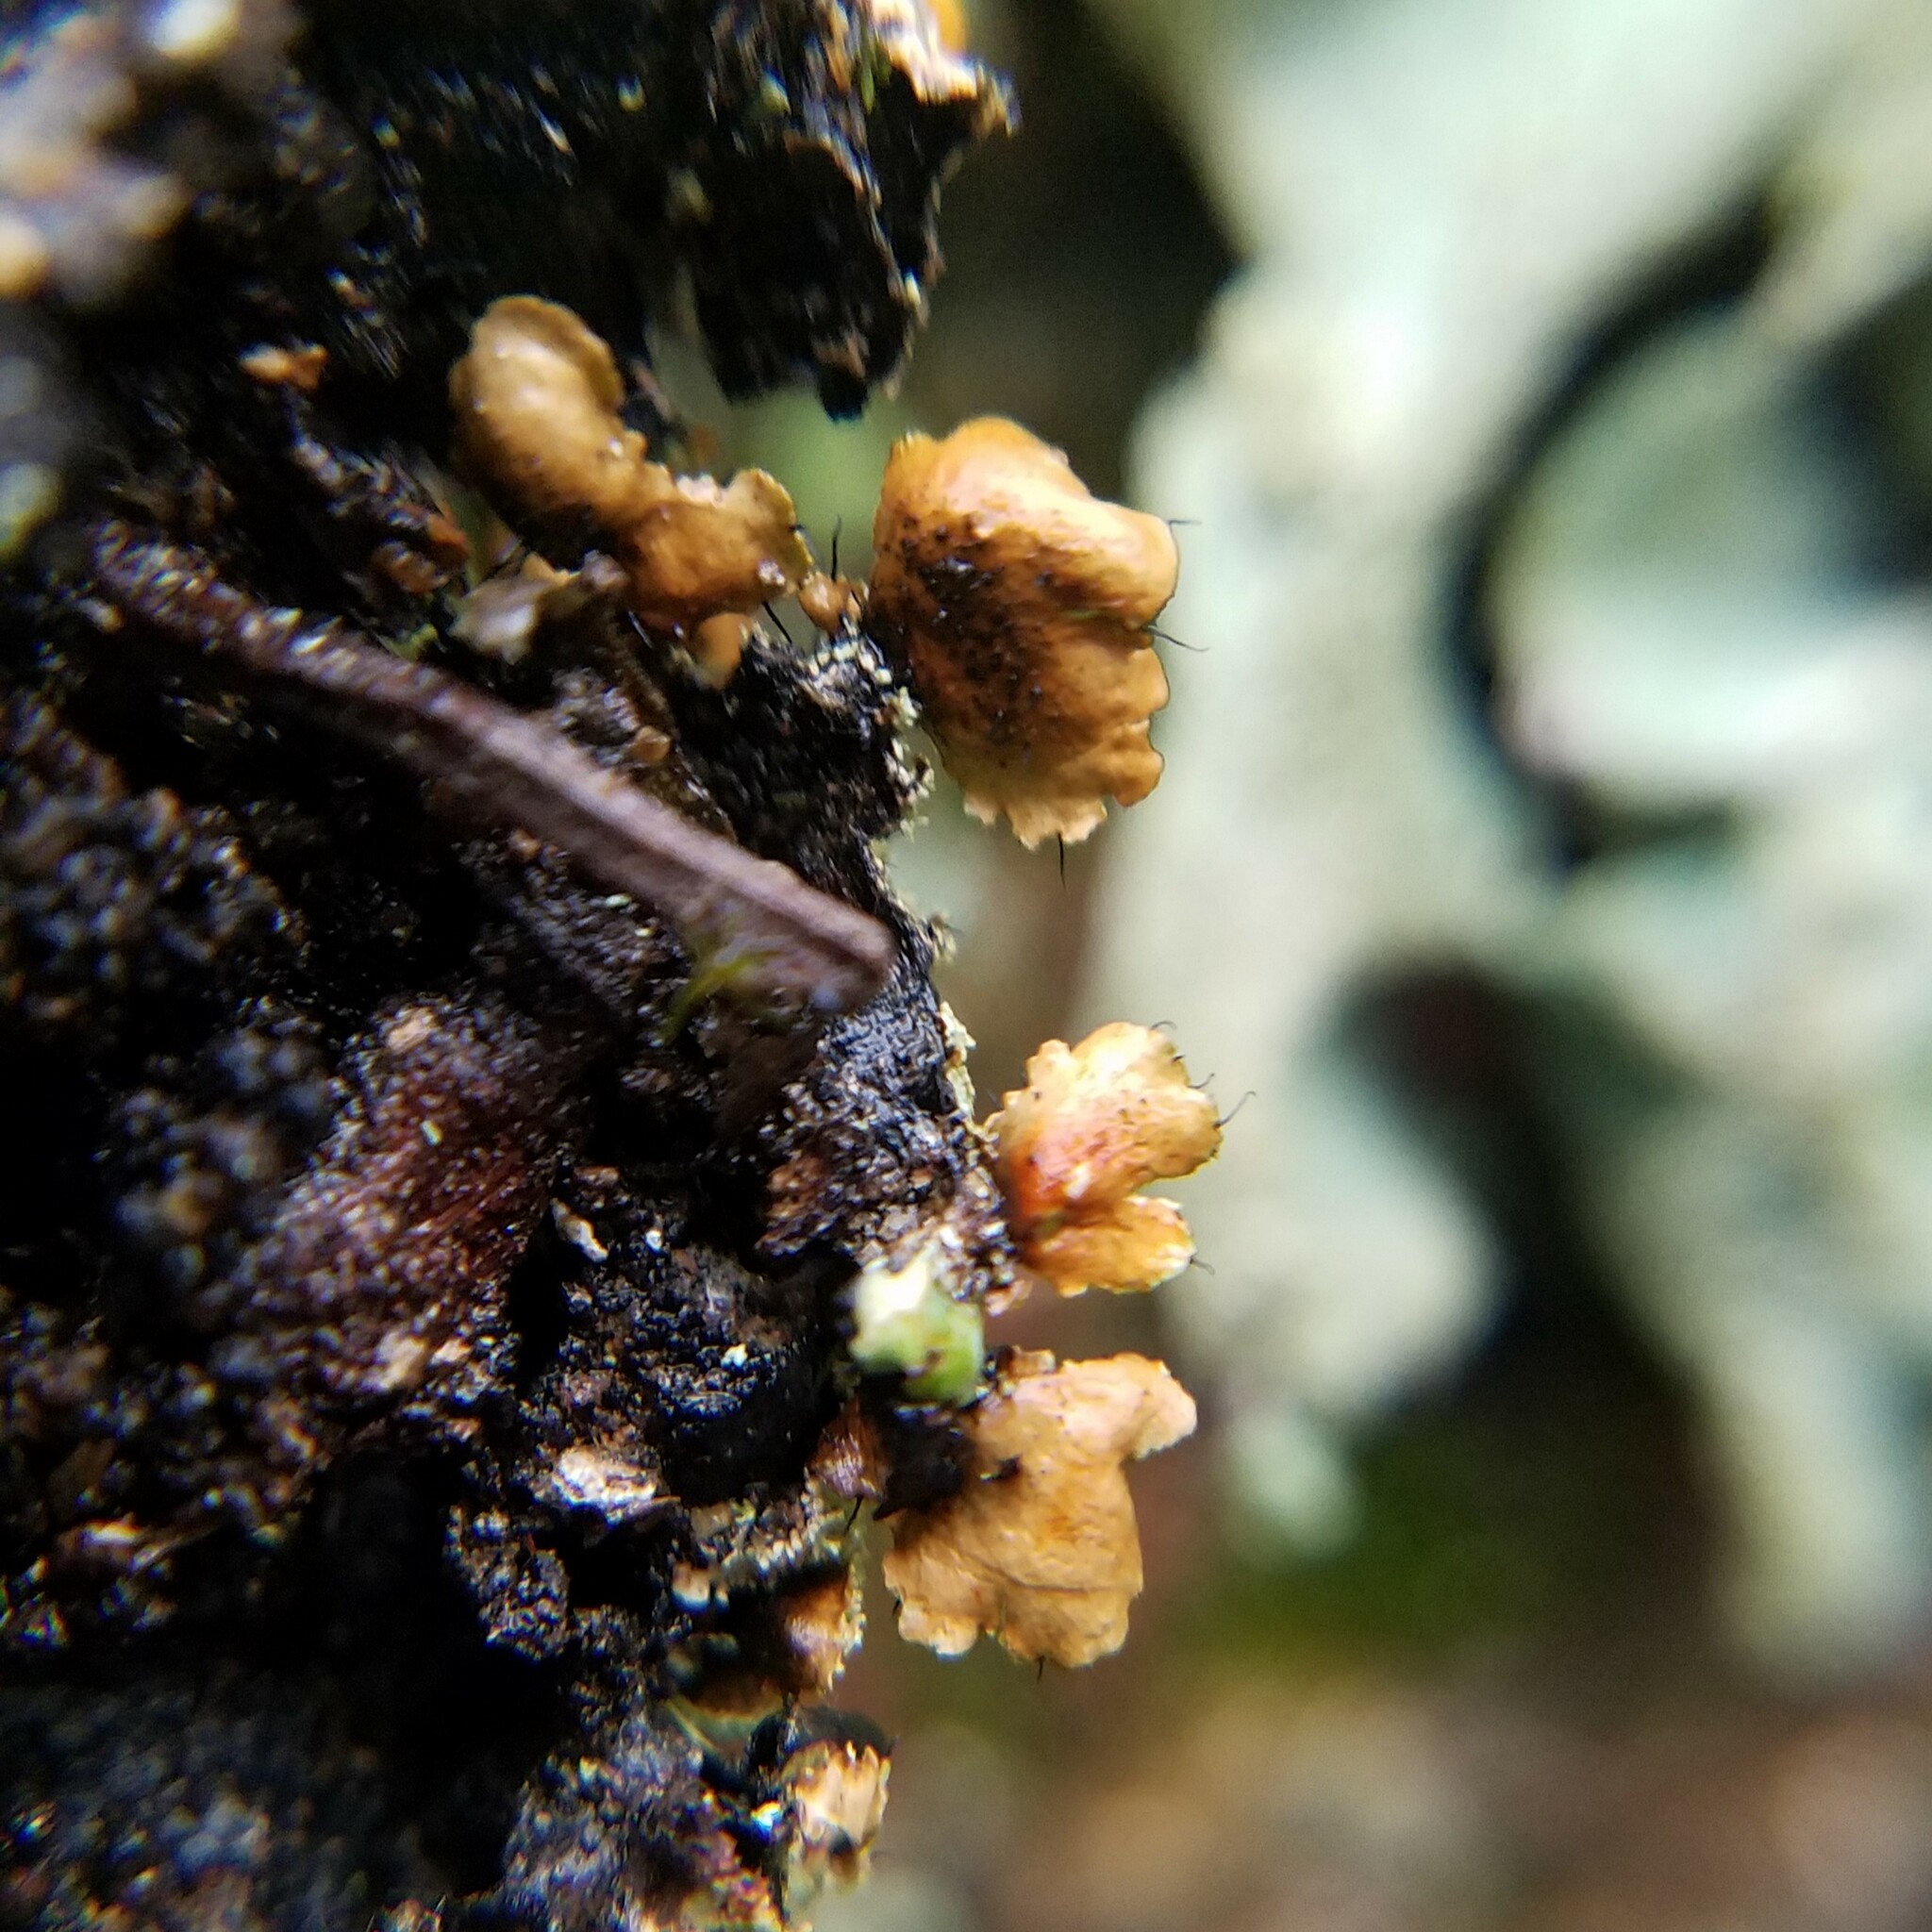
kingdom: Fungi
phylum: Ascomycota
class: Lecanoromycetes
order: Lecanorales
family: Parmeliaceae
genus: Parmotrema
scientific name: Parmotrema ultralucens
